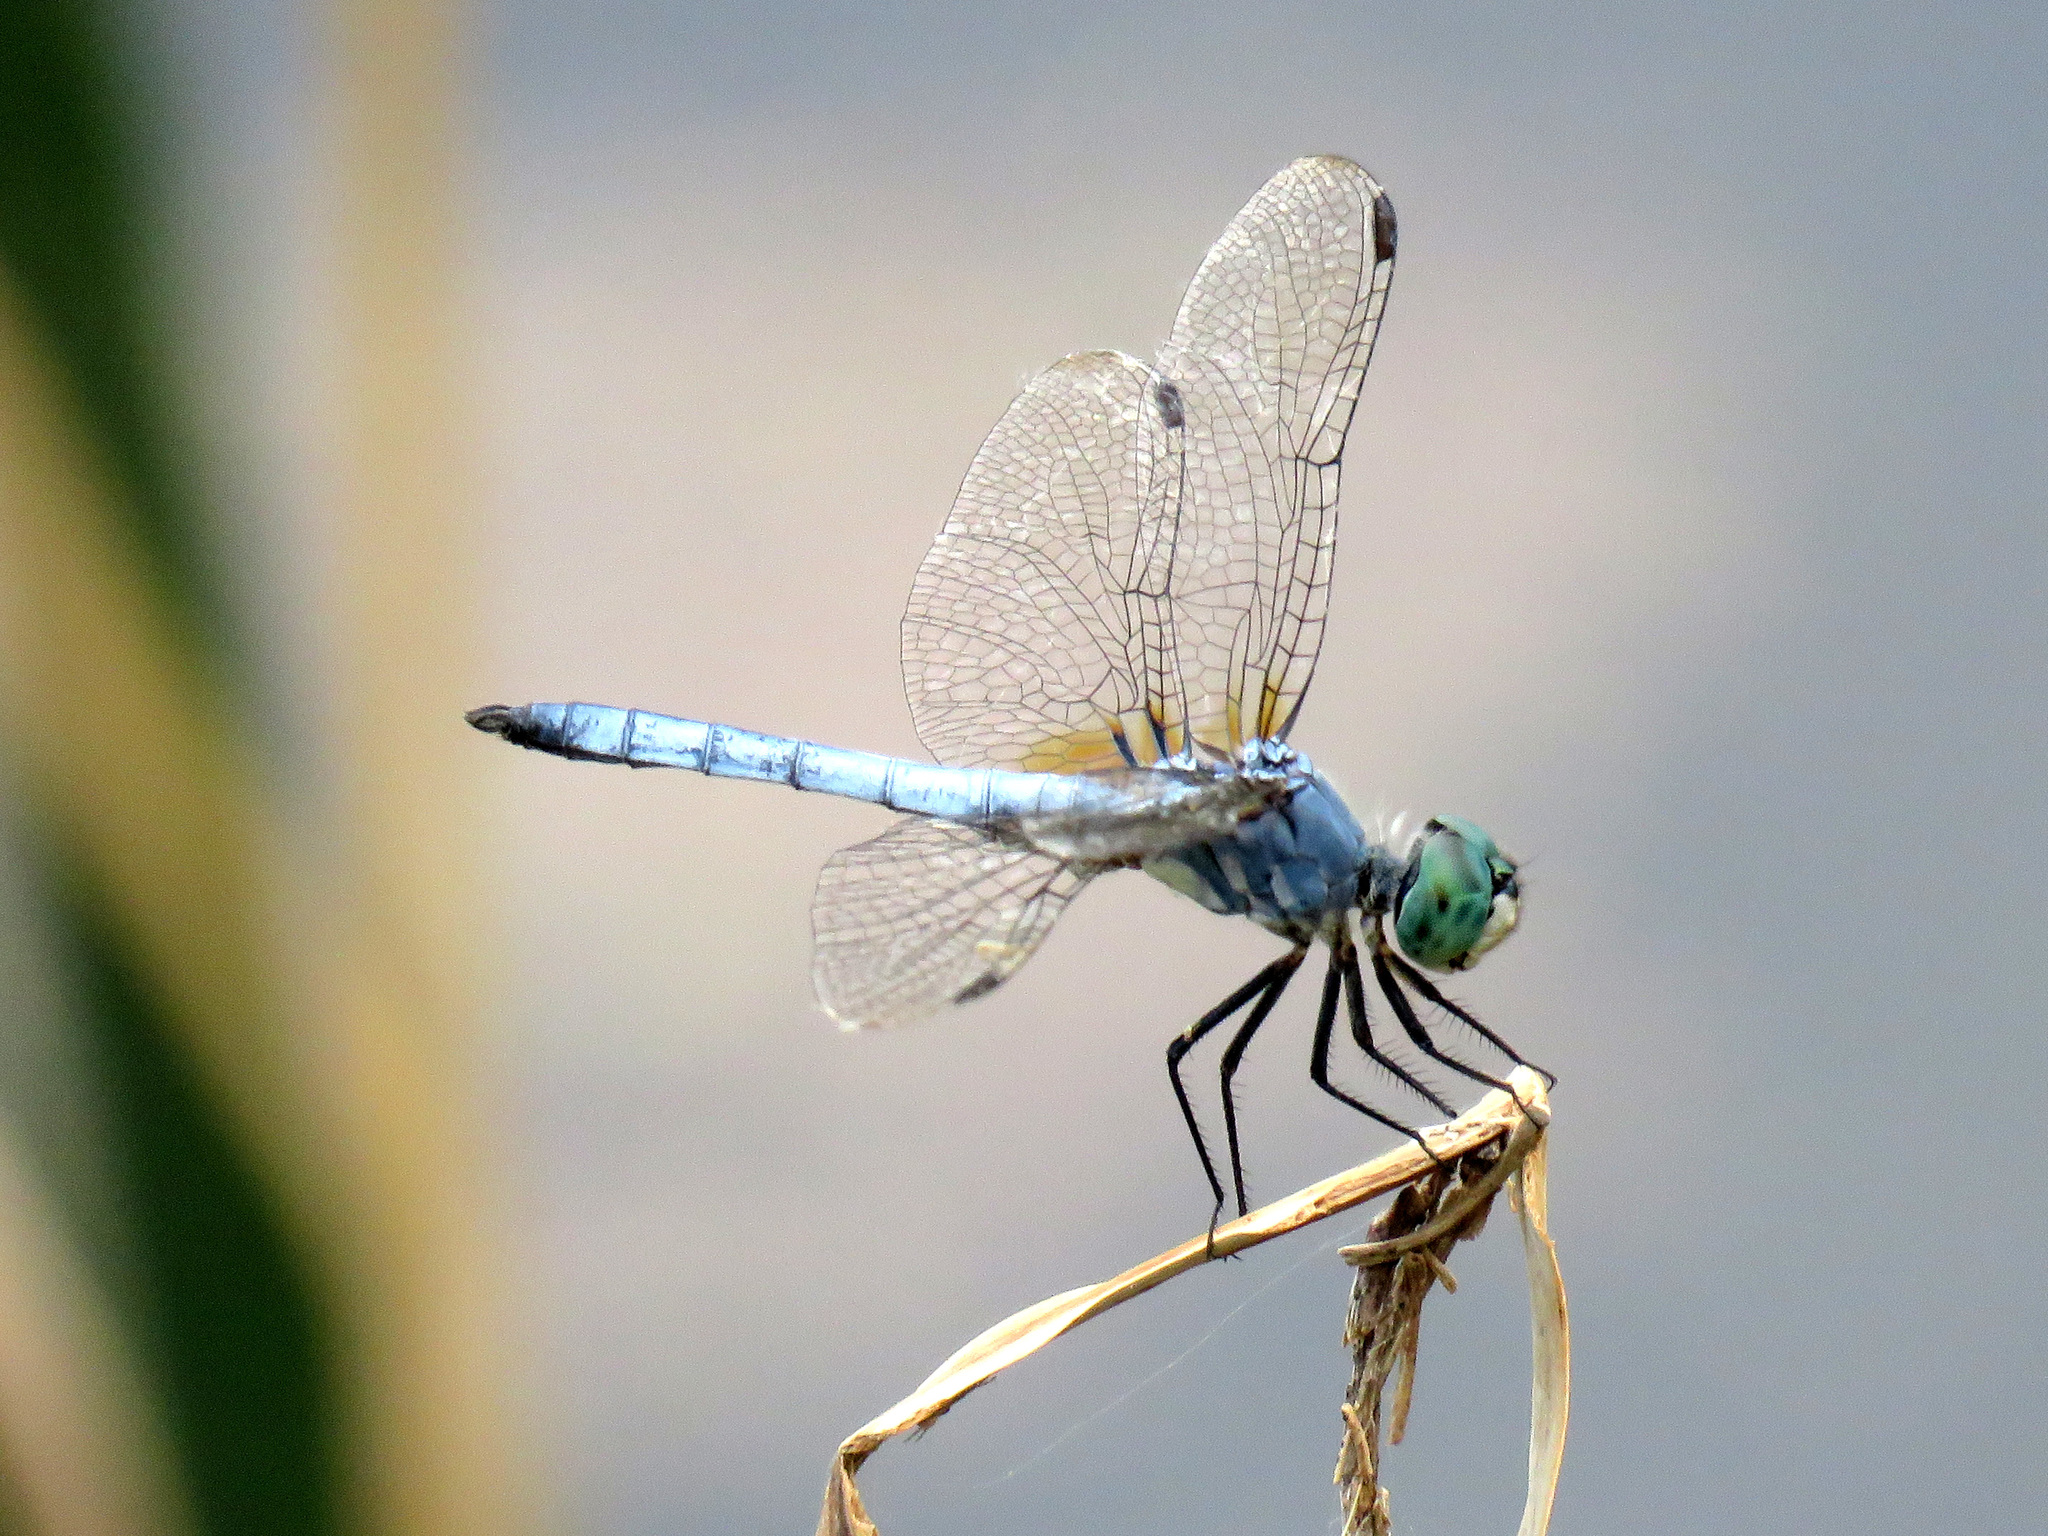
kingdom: Animalia
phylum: Arthropoda
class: Insecta
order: Odonata
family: Libellulidae
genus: Pachydiplax
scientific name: Pachydiplax longipennis
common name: Blue dasher
